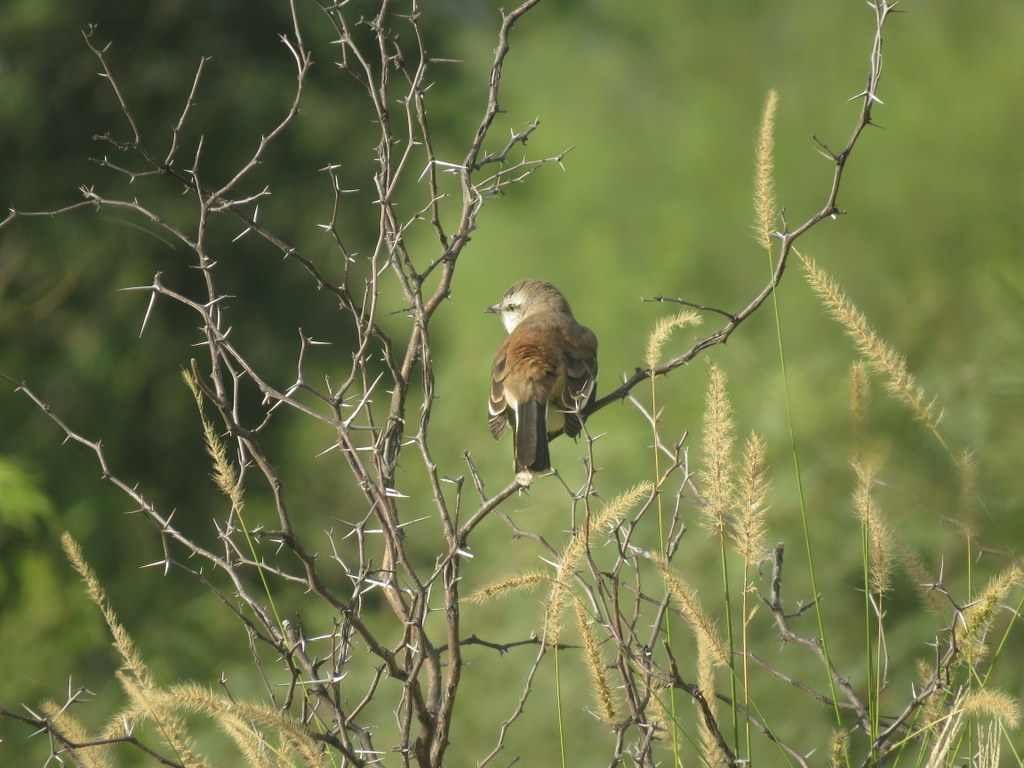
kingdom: Animalia
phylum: Chordata
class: Aves
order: Passeriformes
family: Mimidae
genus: Mimus
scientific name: Mimus triurus
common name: White-banded mockingbird
